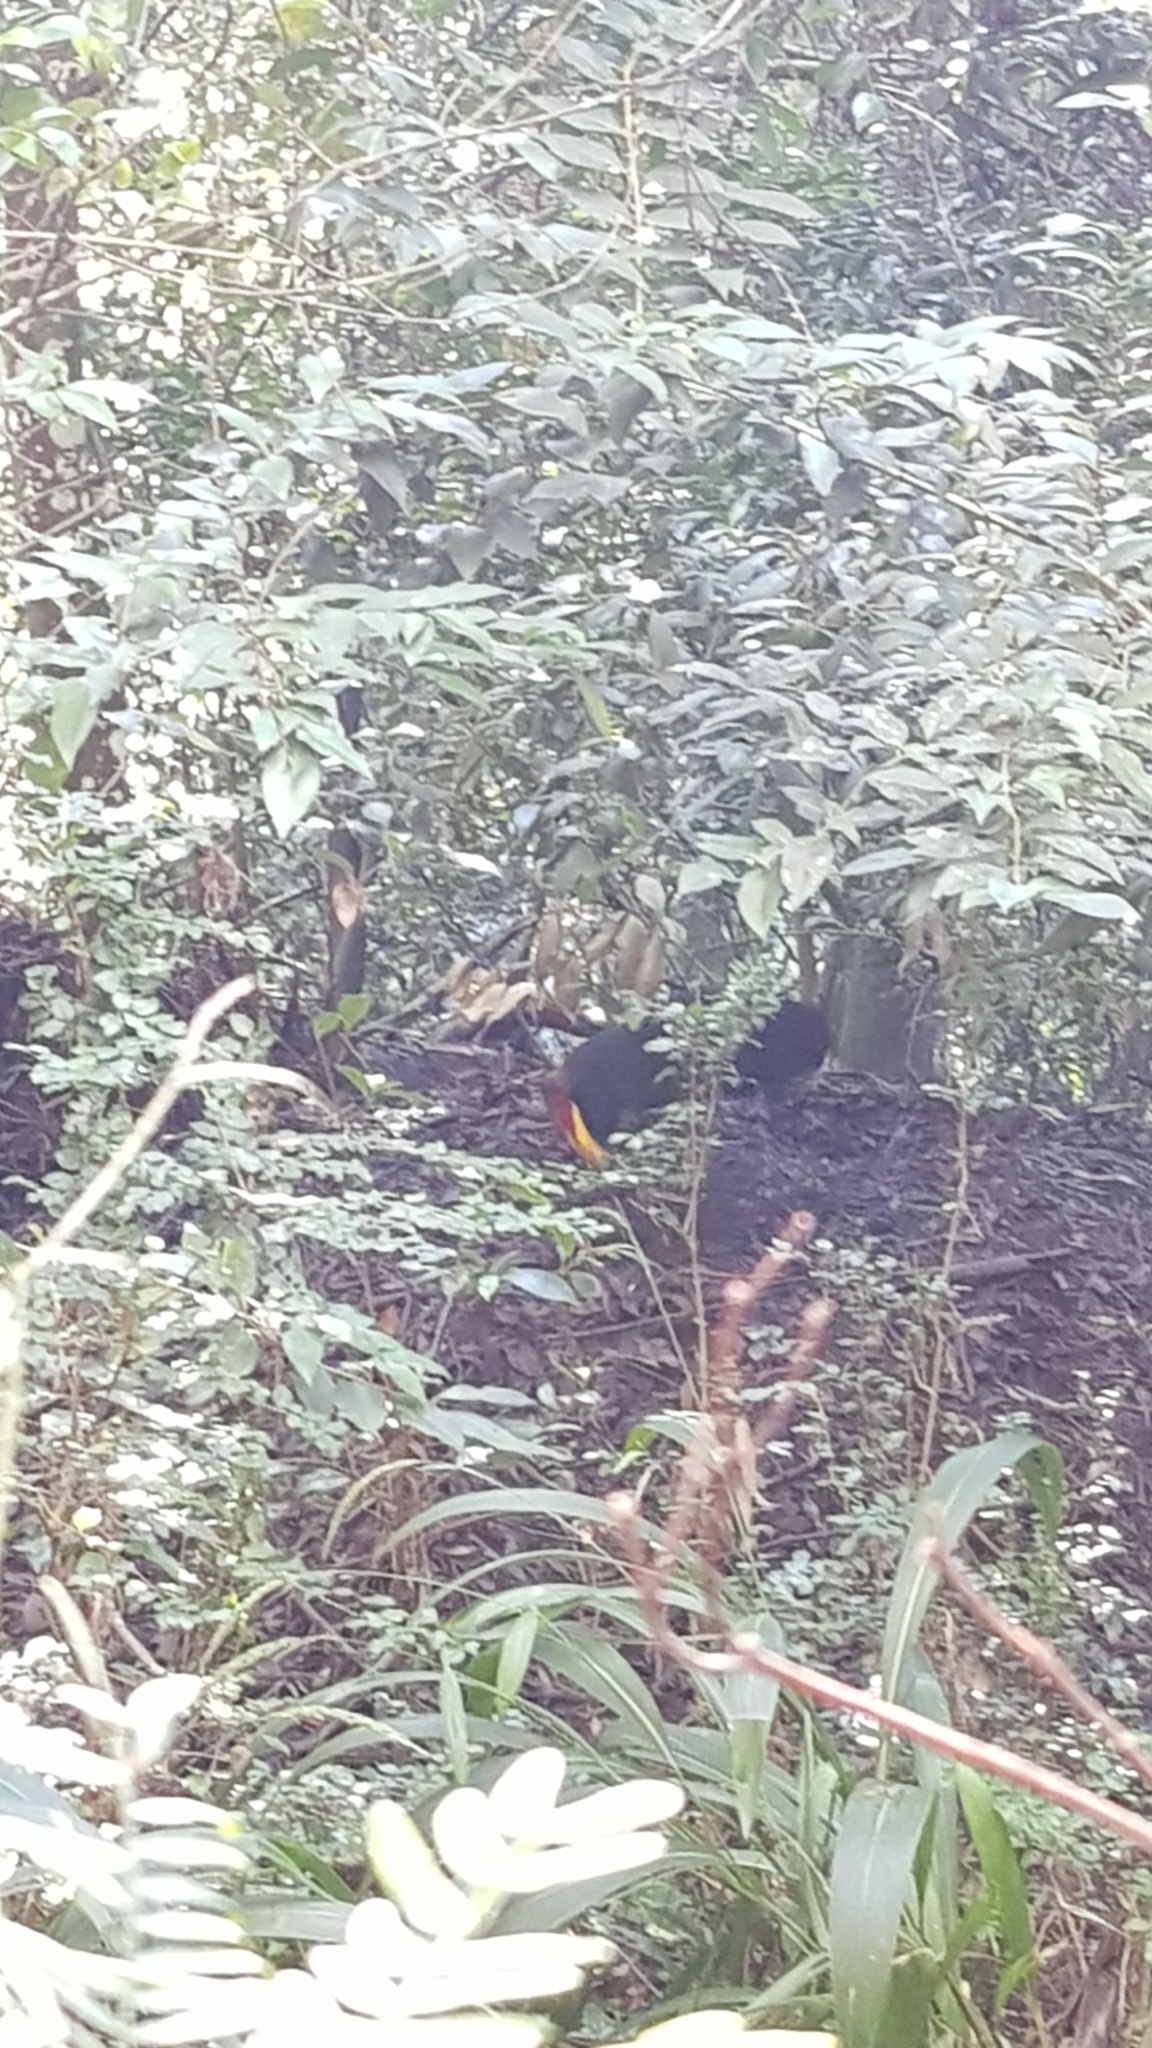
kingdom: Animalia
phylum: Chordata
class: Aves
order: Galliformes
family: Megapodiidae
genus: Alectura
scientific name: Alectura lathami
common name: Australian brushturkey
